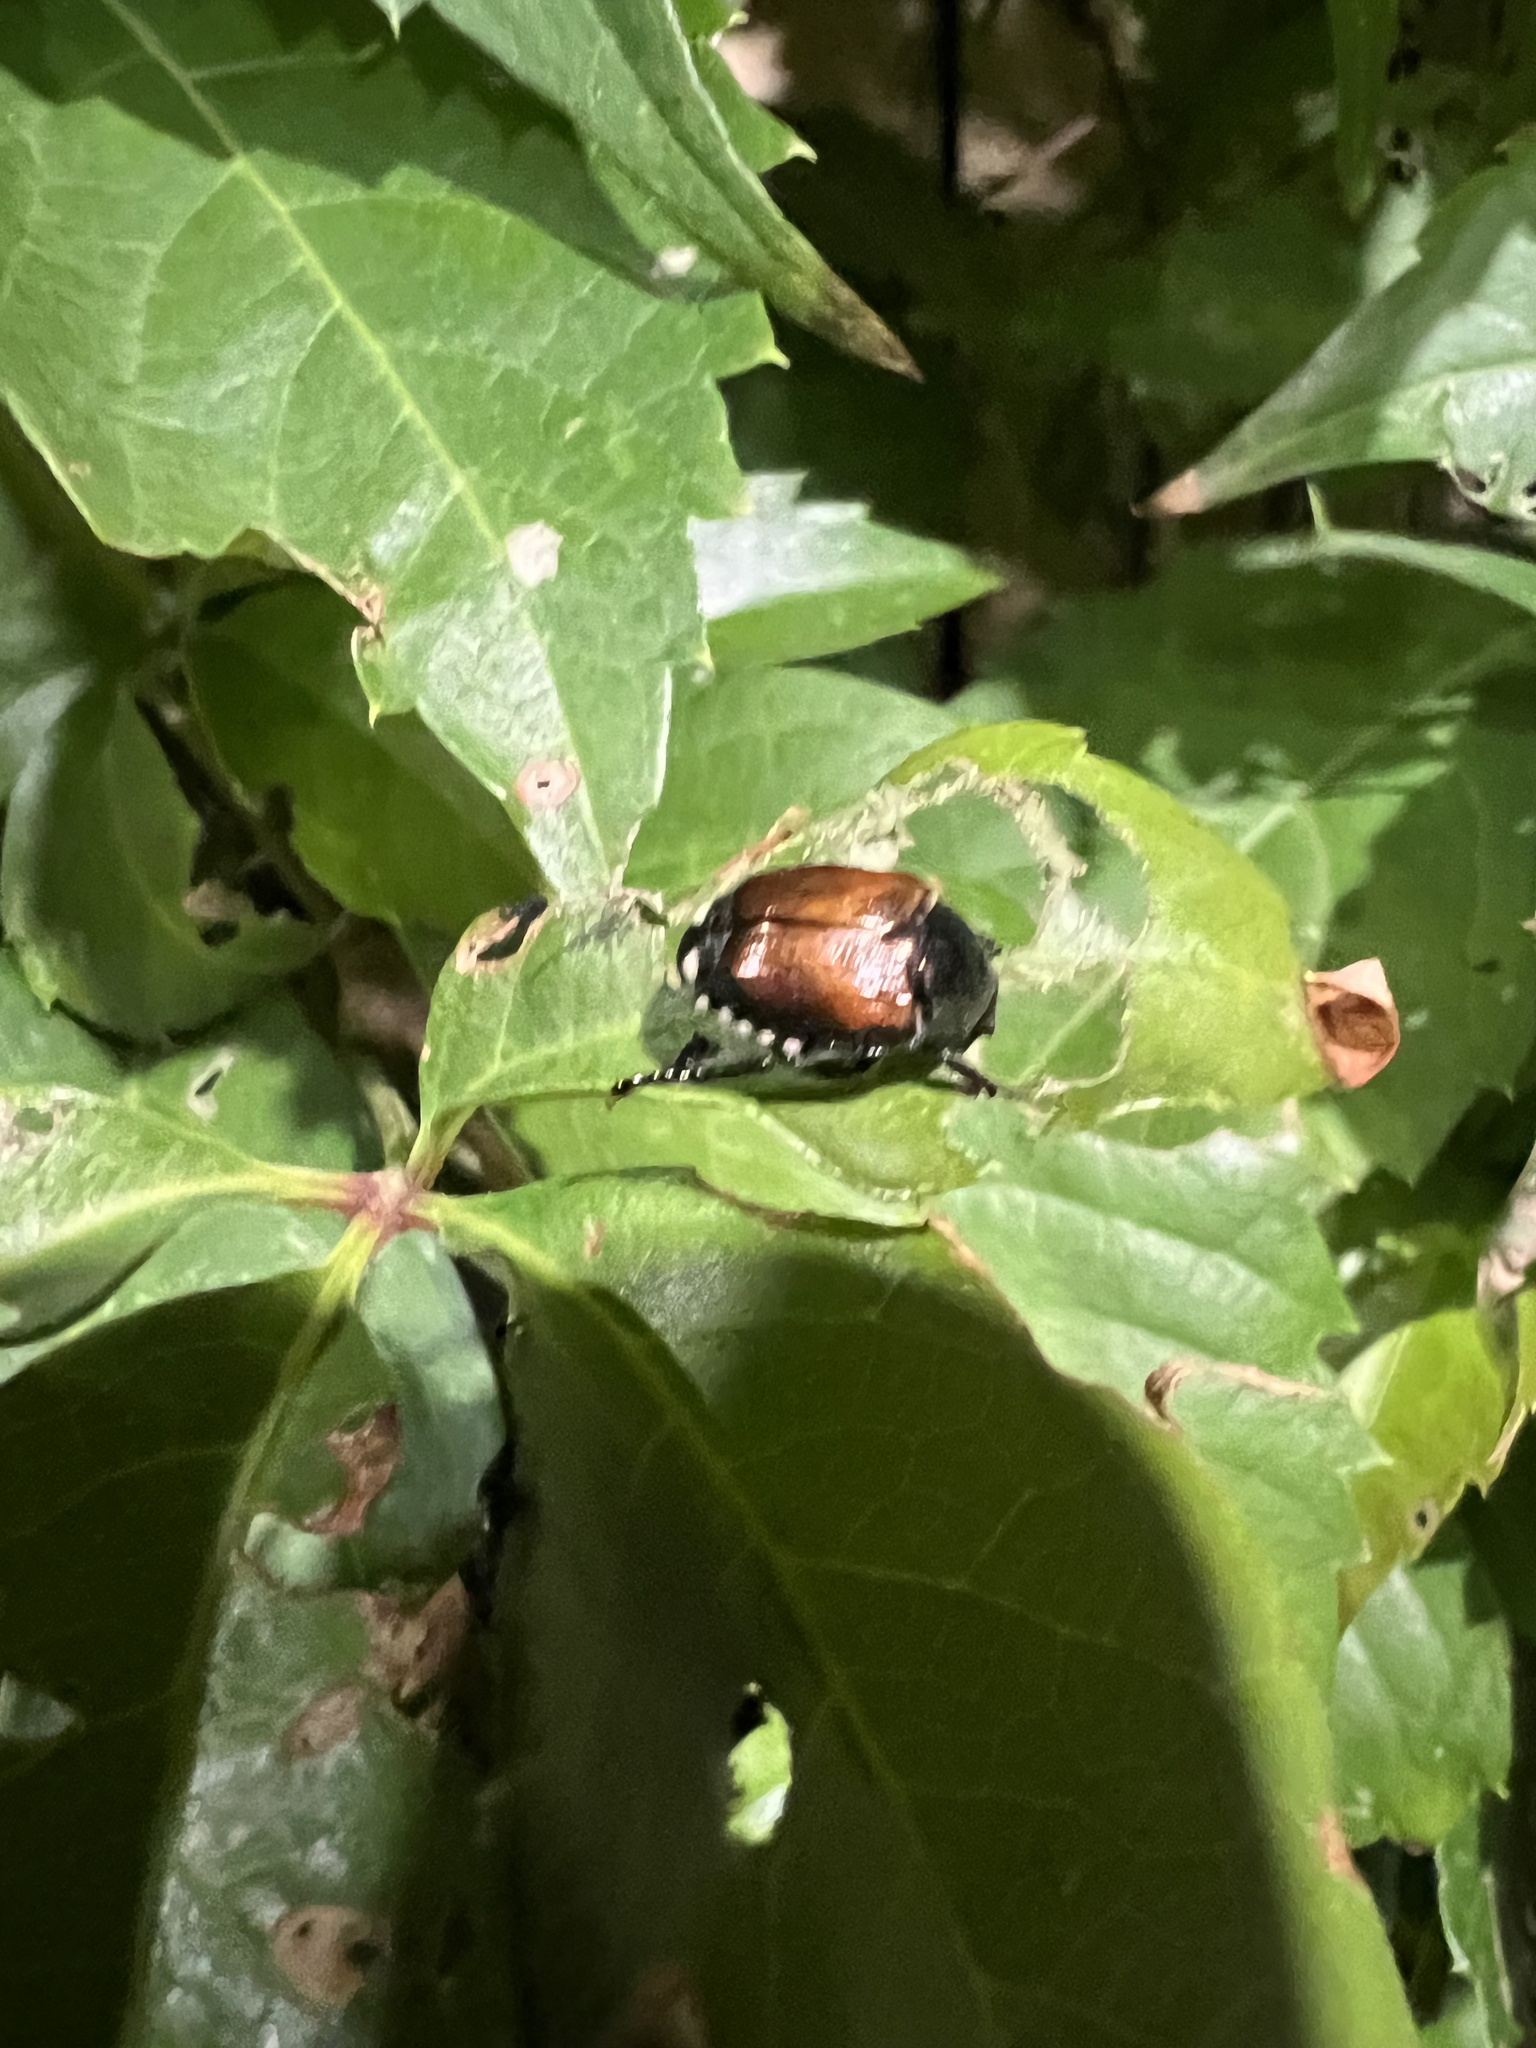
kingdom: Animalia
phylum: Arthropoda
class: Insecta
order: Coleoptera
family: Scarabaeidae
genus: Popillia
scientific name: Popillia japonica
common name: Japanese beetle
